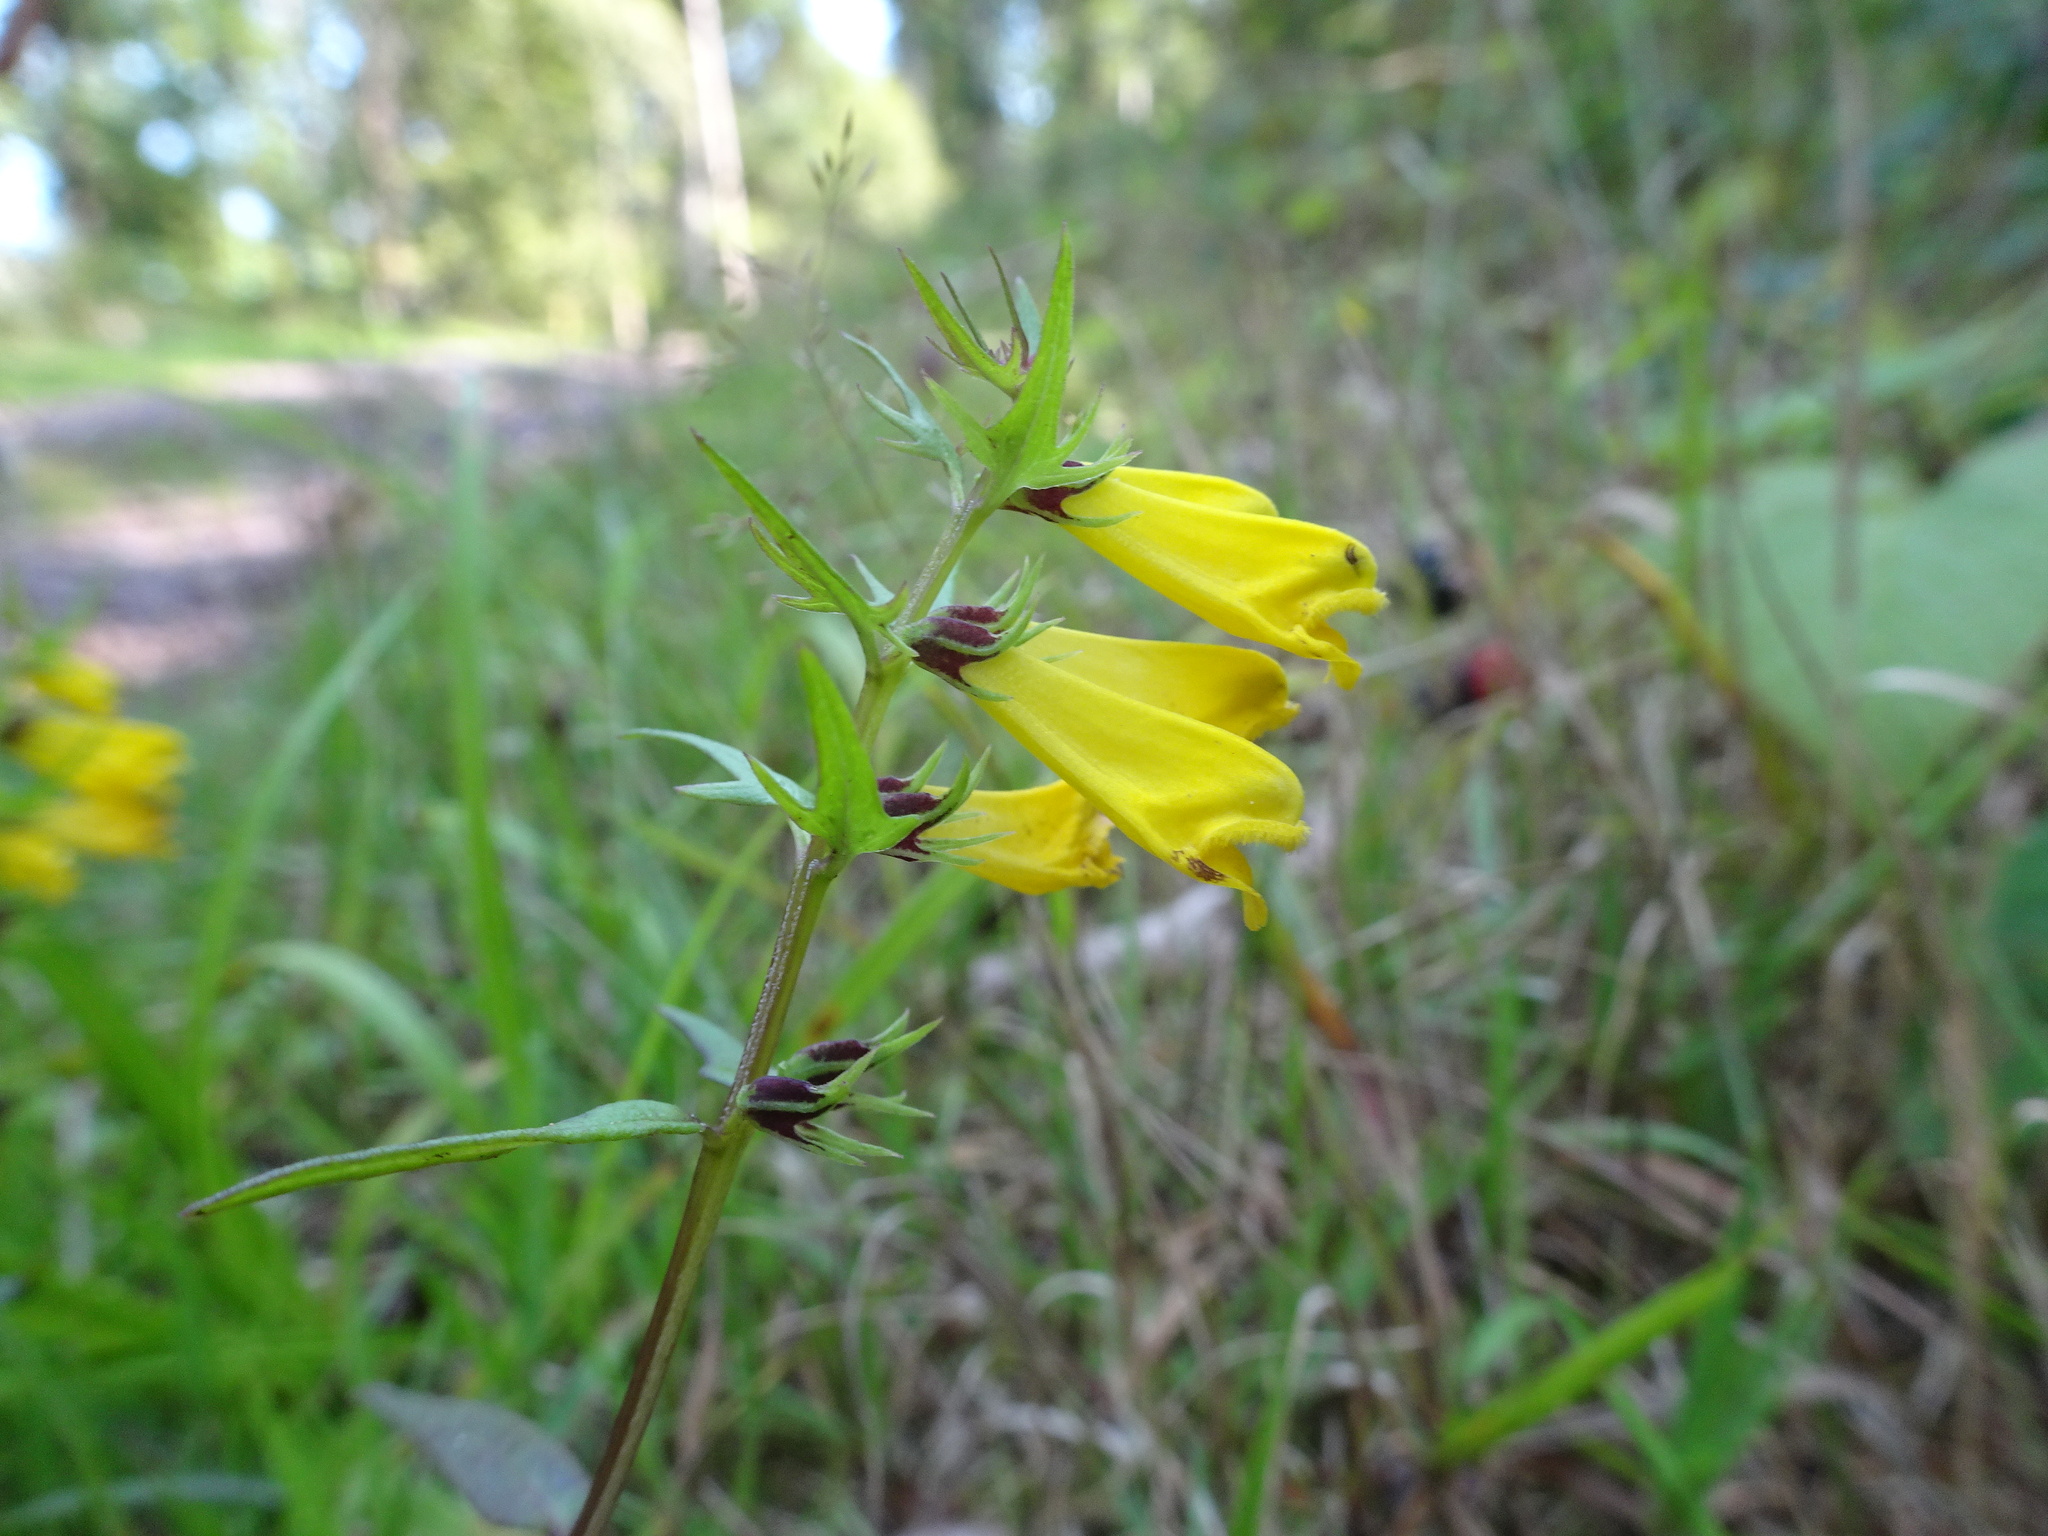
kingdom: Plantae
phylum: Tracheophyta
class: Magnoliopsida
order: Lamiales
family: Orobanchaceae
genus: Melampyrum
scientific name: Melampyrum pratense
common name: Common cow-wheat
